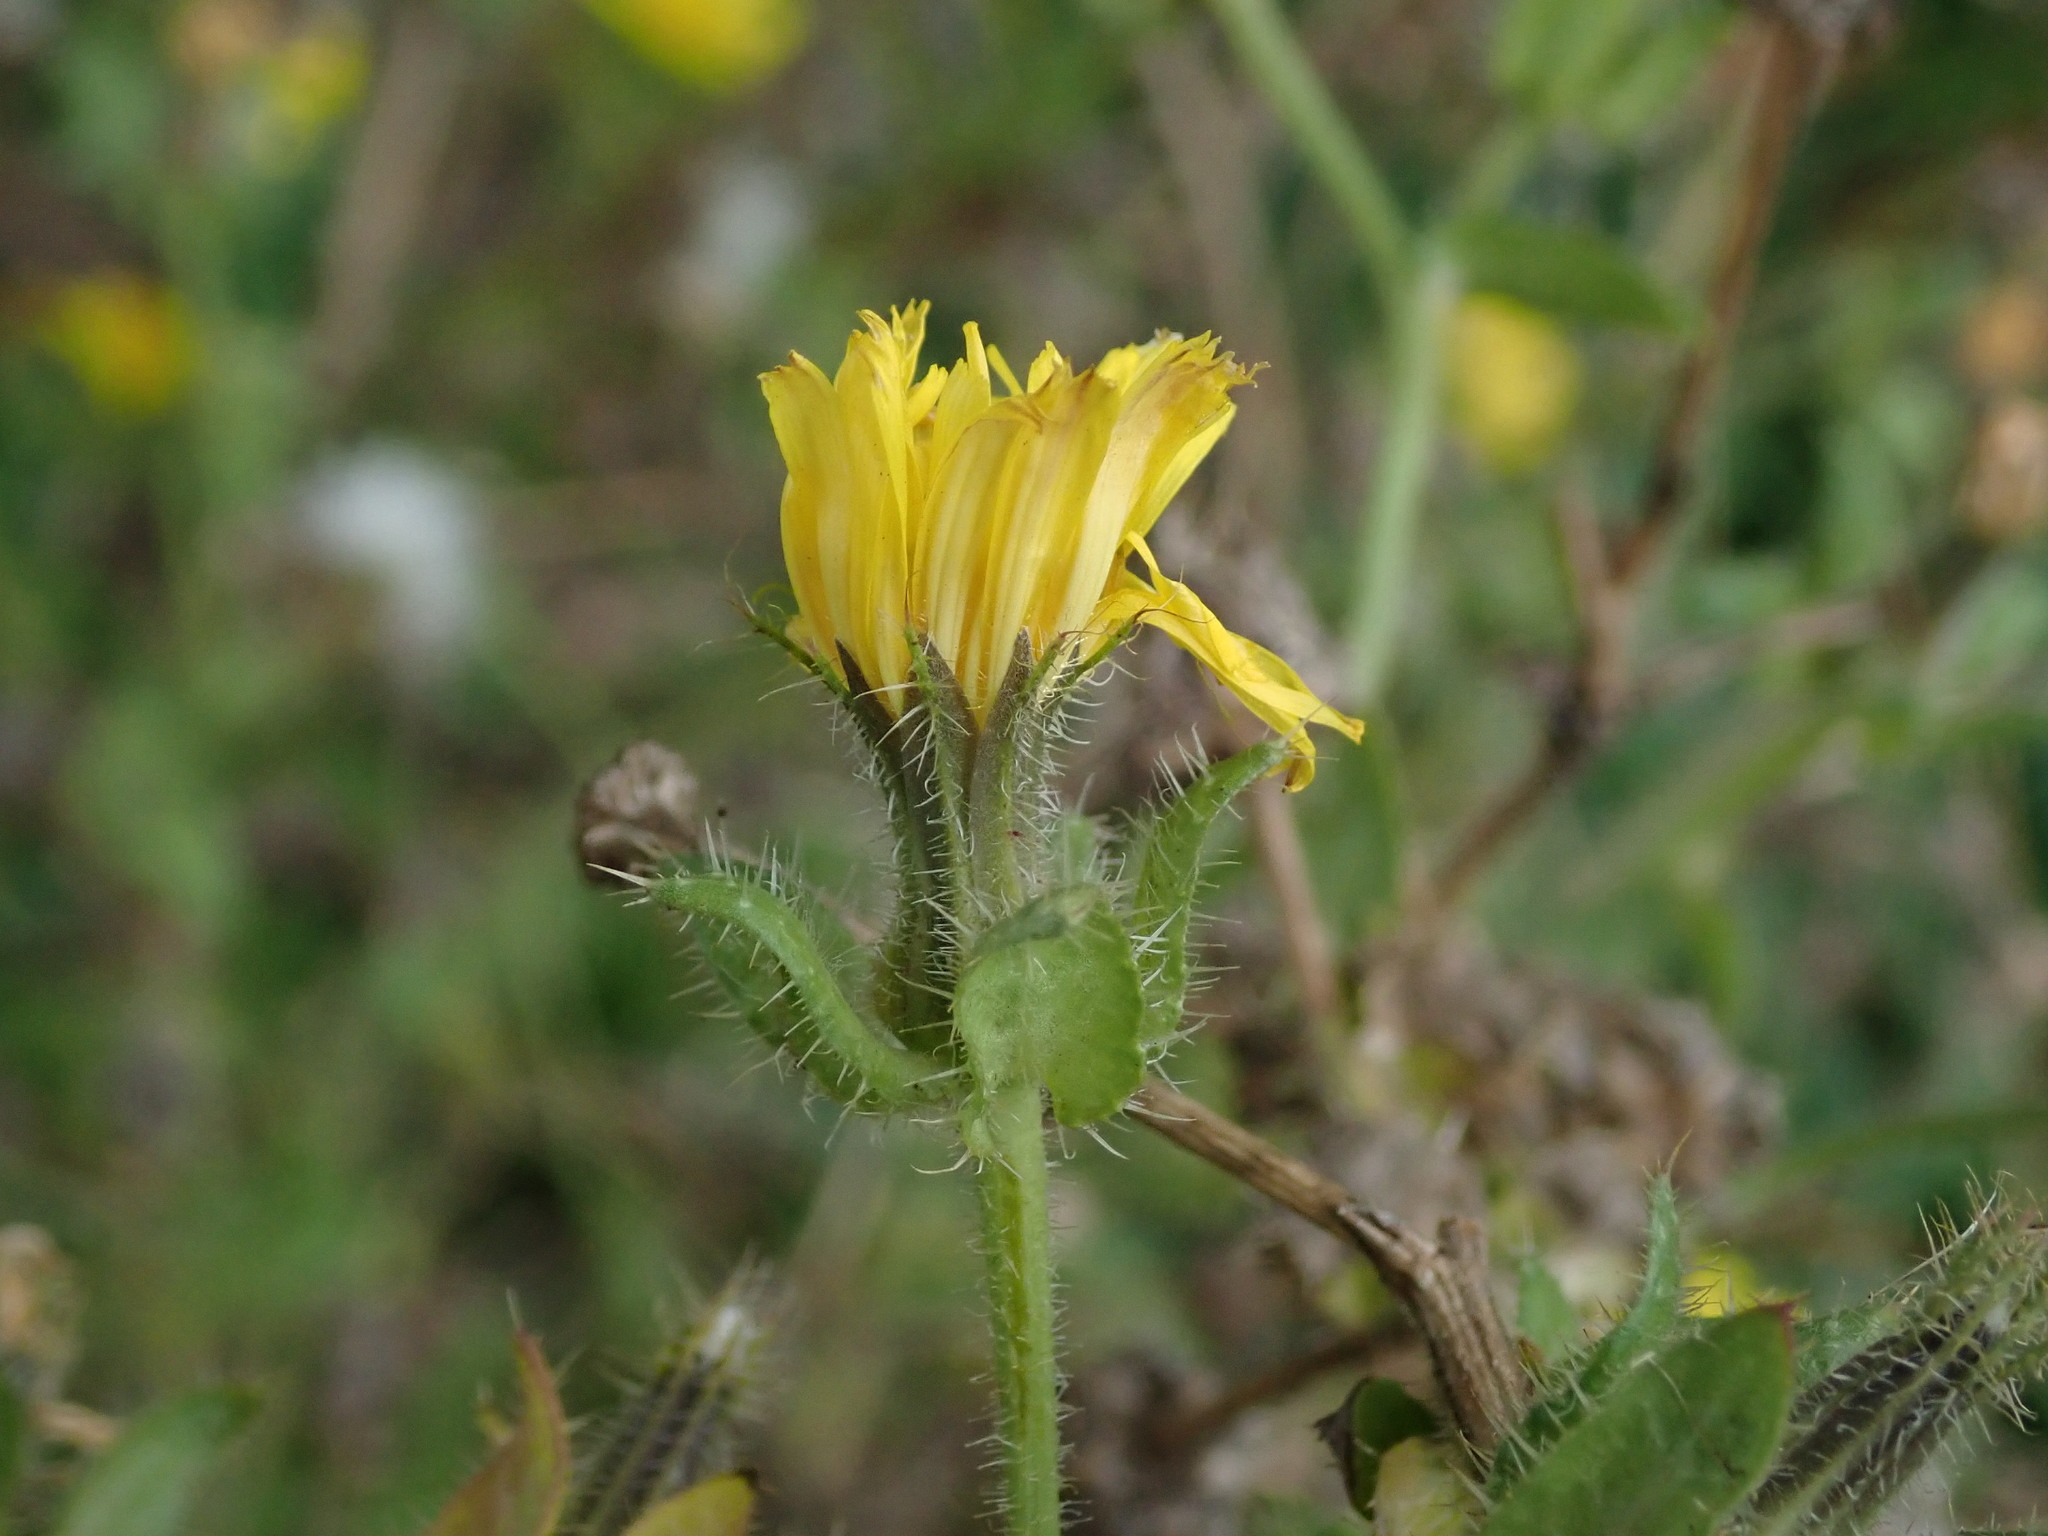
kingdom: Plantae
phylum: Tracheophyta
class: Magnoliopsida
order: Asterales
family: Asteraceae
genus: Helminthotheca
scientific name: Helminthotheca echioides
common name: Ox-tongue
